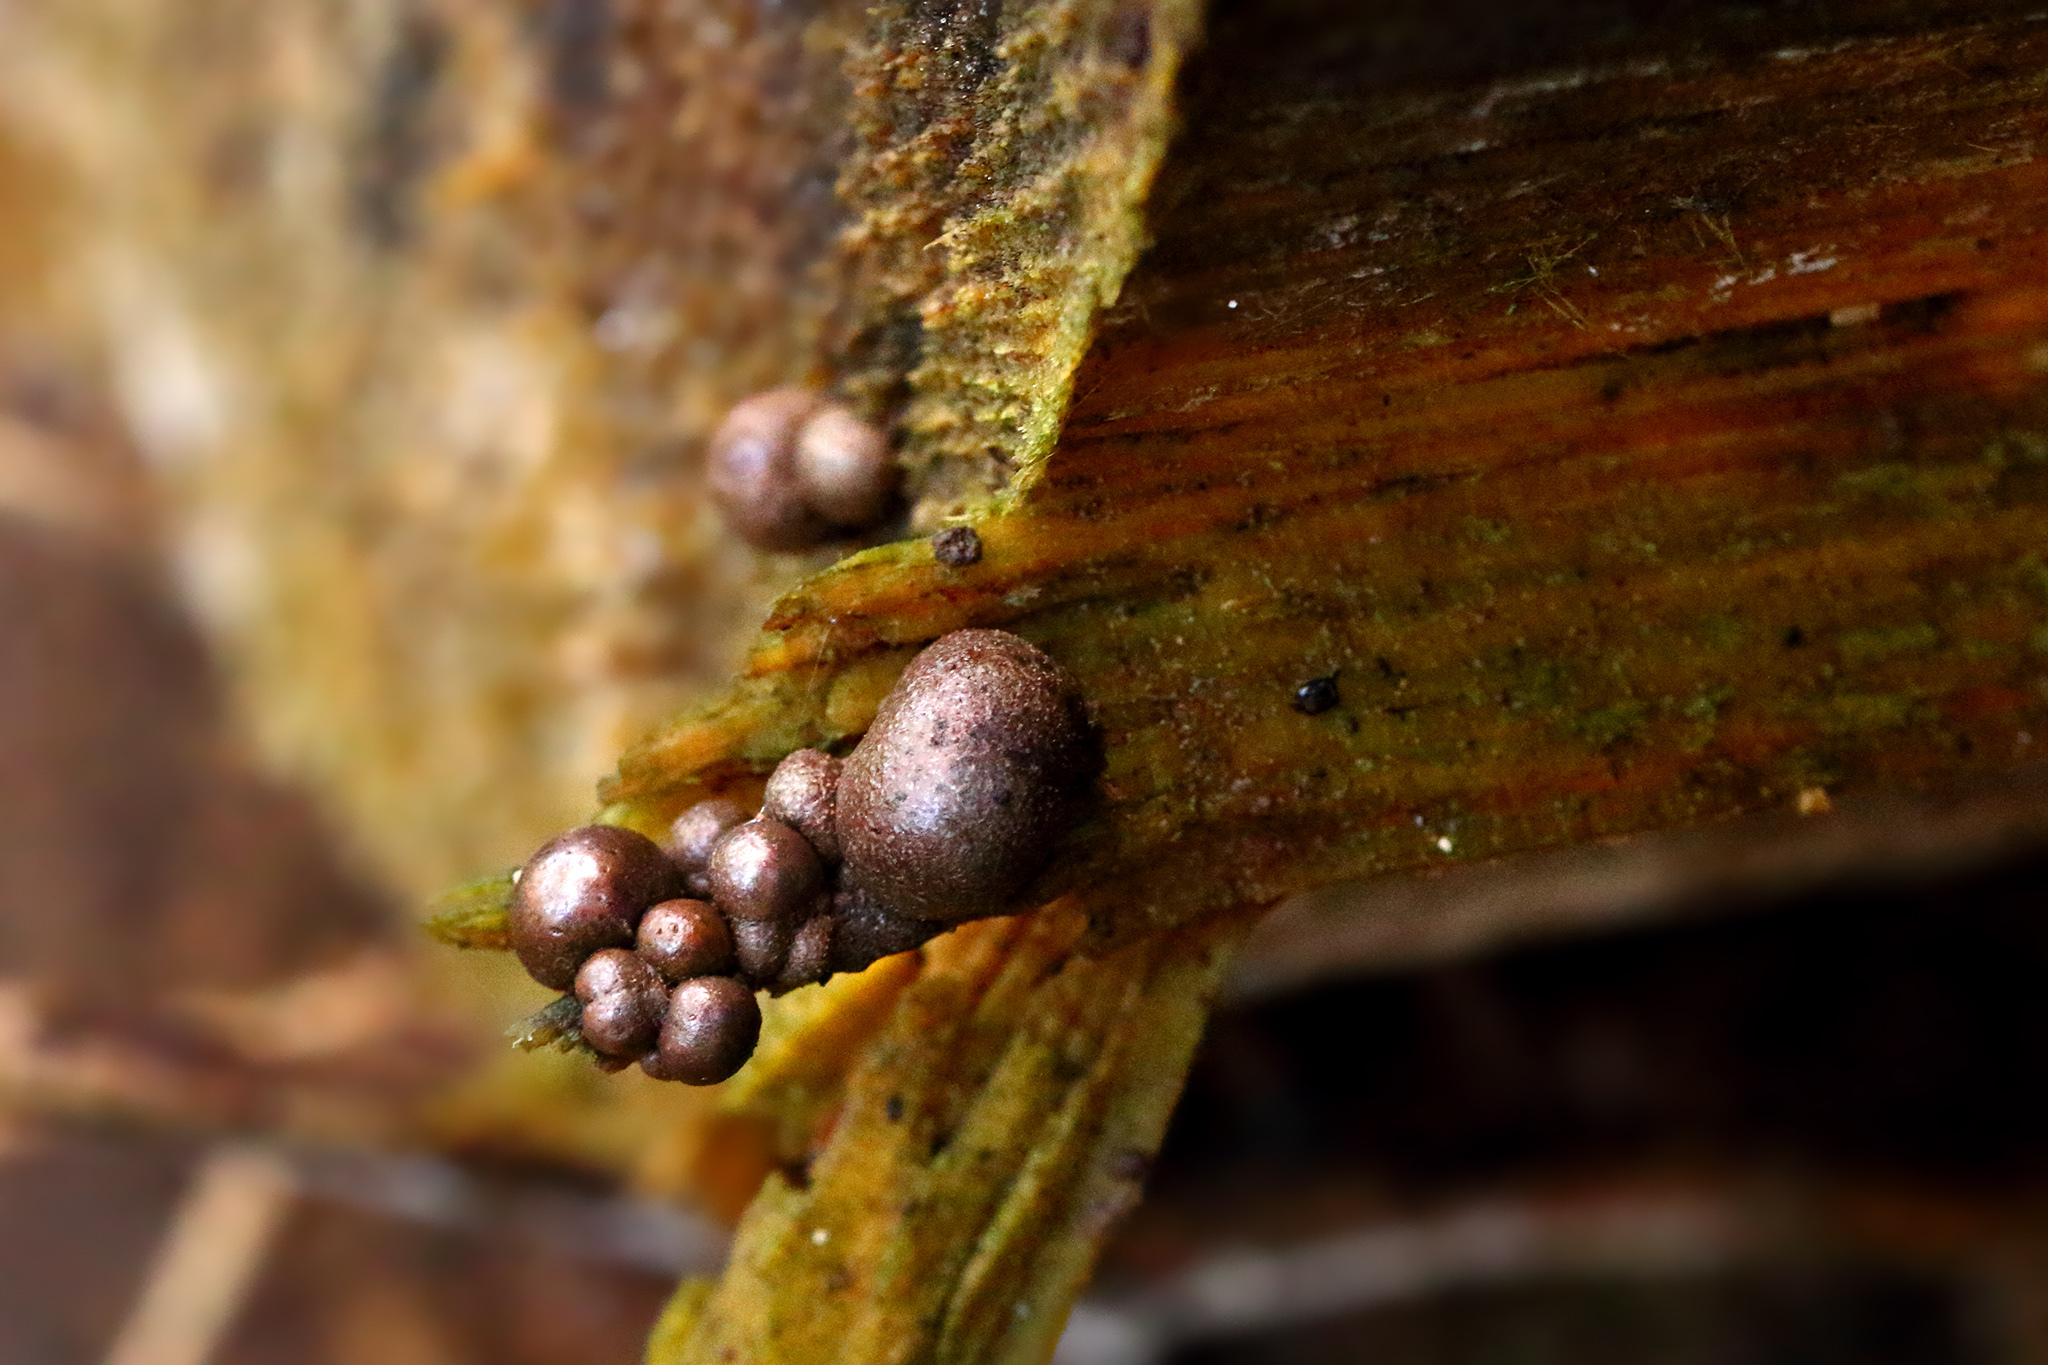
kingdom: Protozoa
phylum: Mycetozoa
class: Myxomycetes
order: Cribrariales
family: Tubiferaceae
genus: Lycogala
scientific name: Lycogala epidendrum
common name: Wolf's milk
